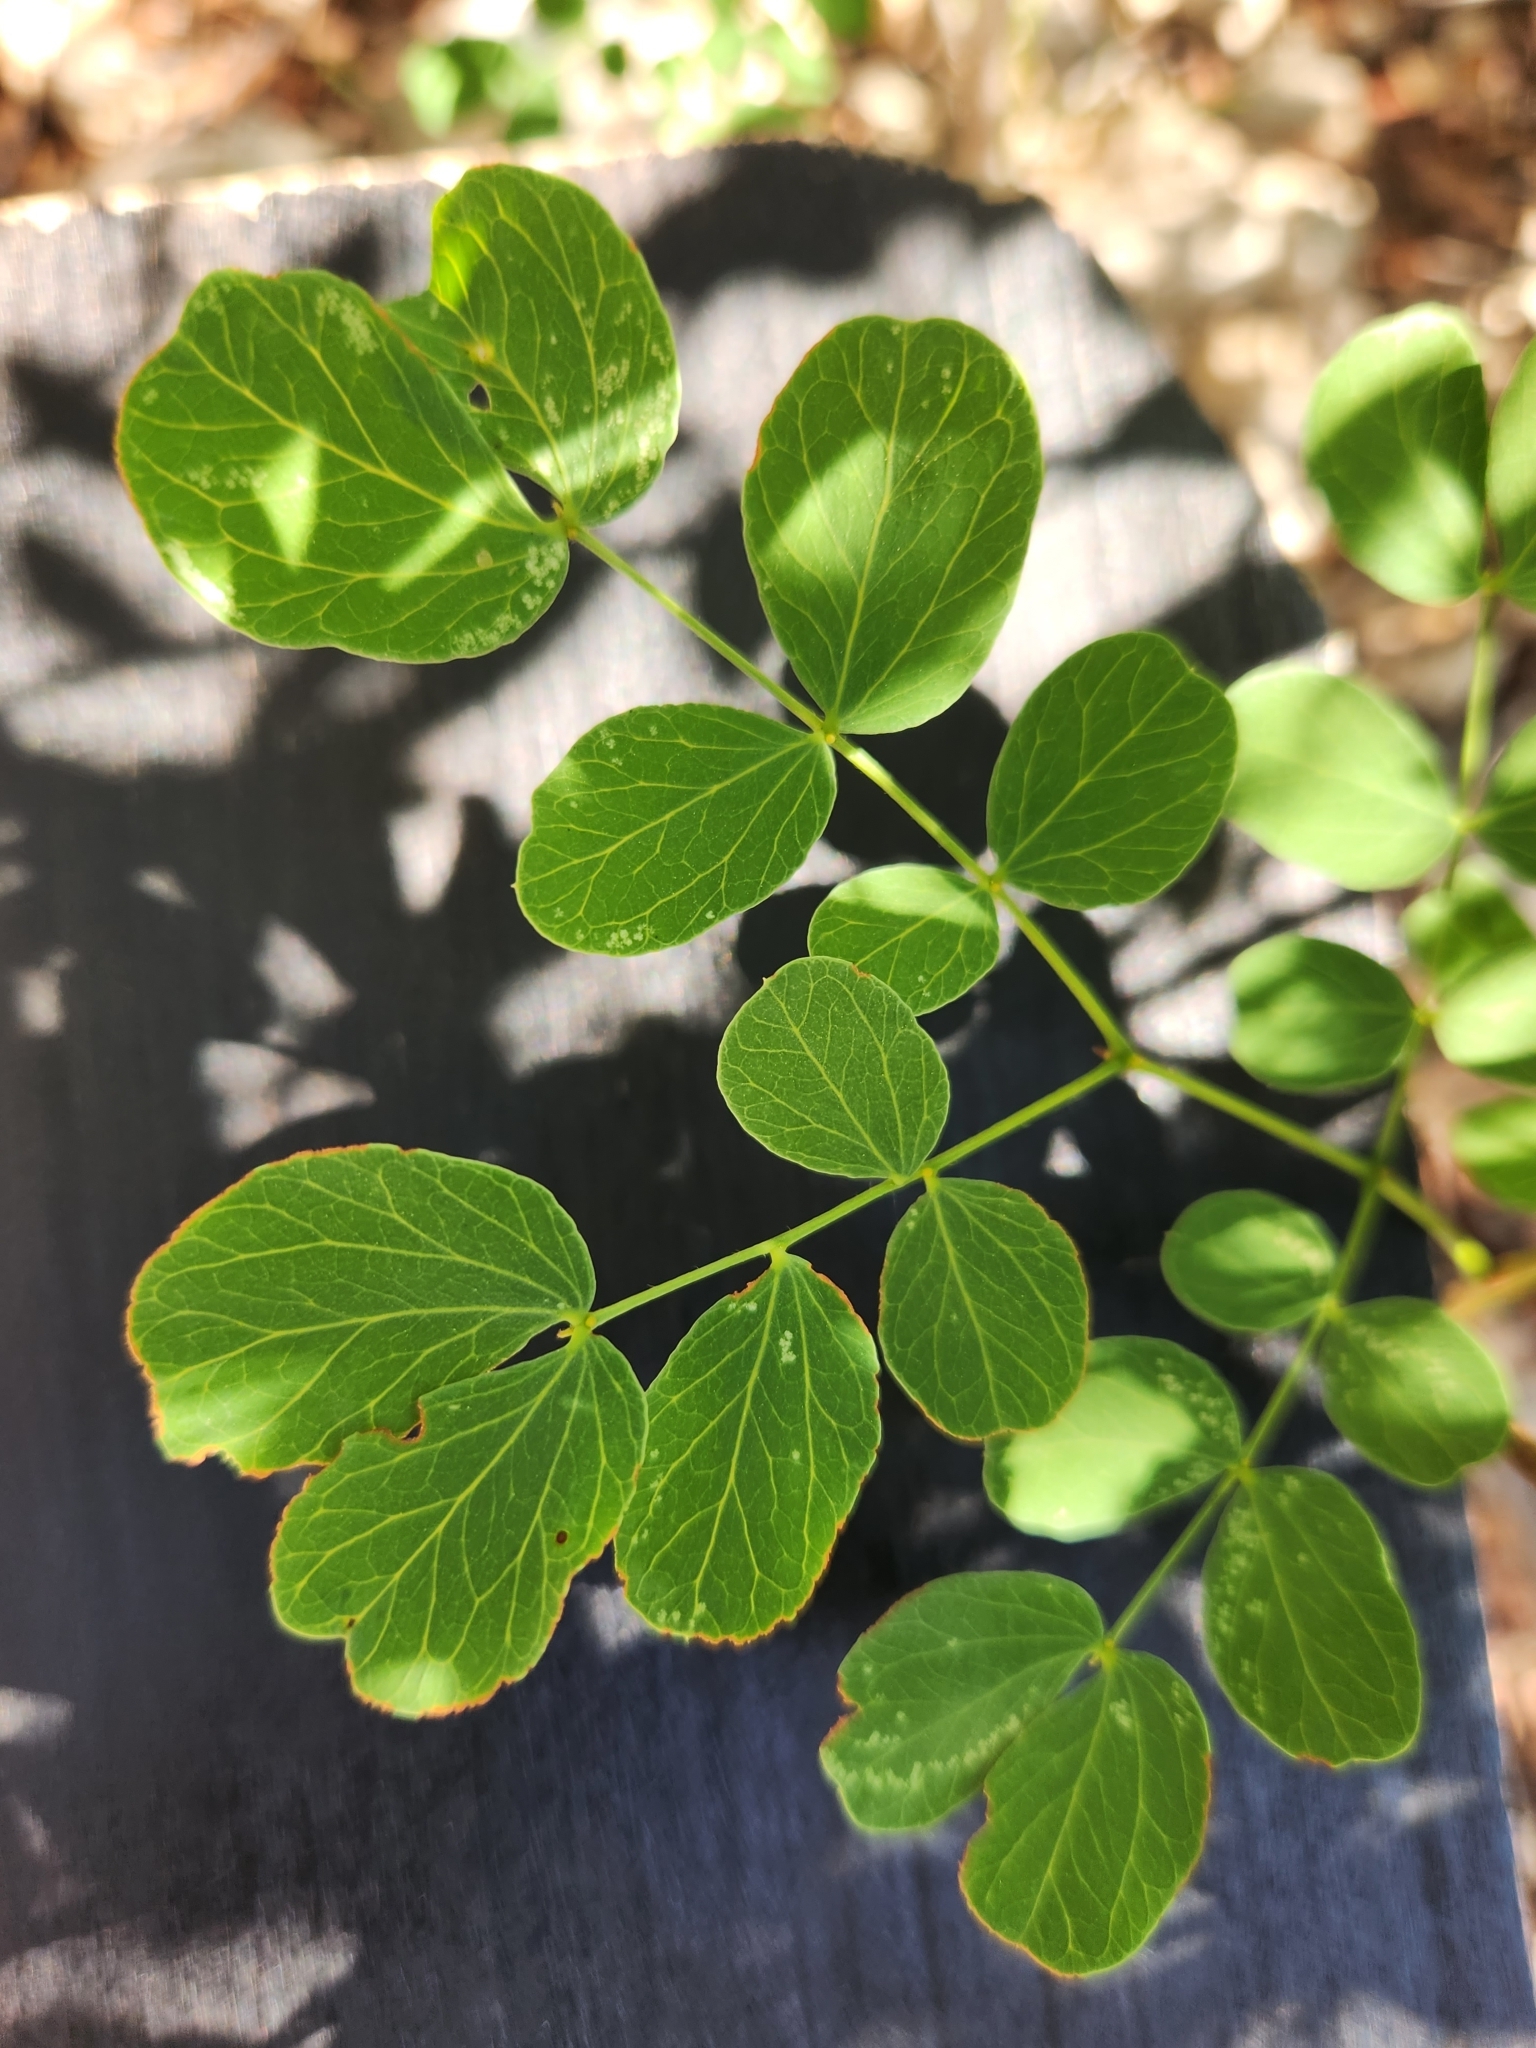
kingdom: Plantae
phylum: Tracheophyta
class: Magnoliopsida
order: Fabales
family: Fabaceae
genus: Leucaena
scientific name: Leucaena retusa
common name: Littleleaf leadtree
